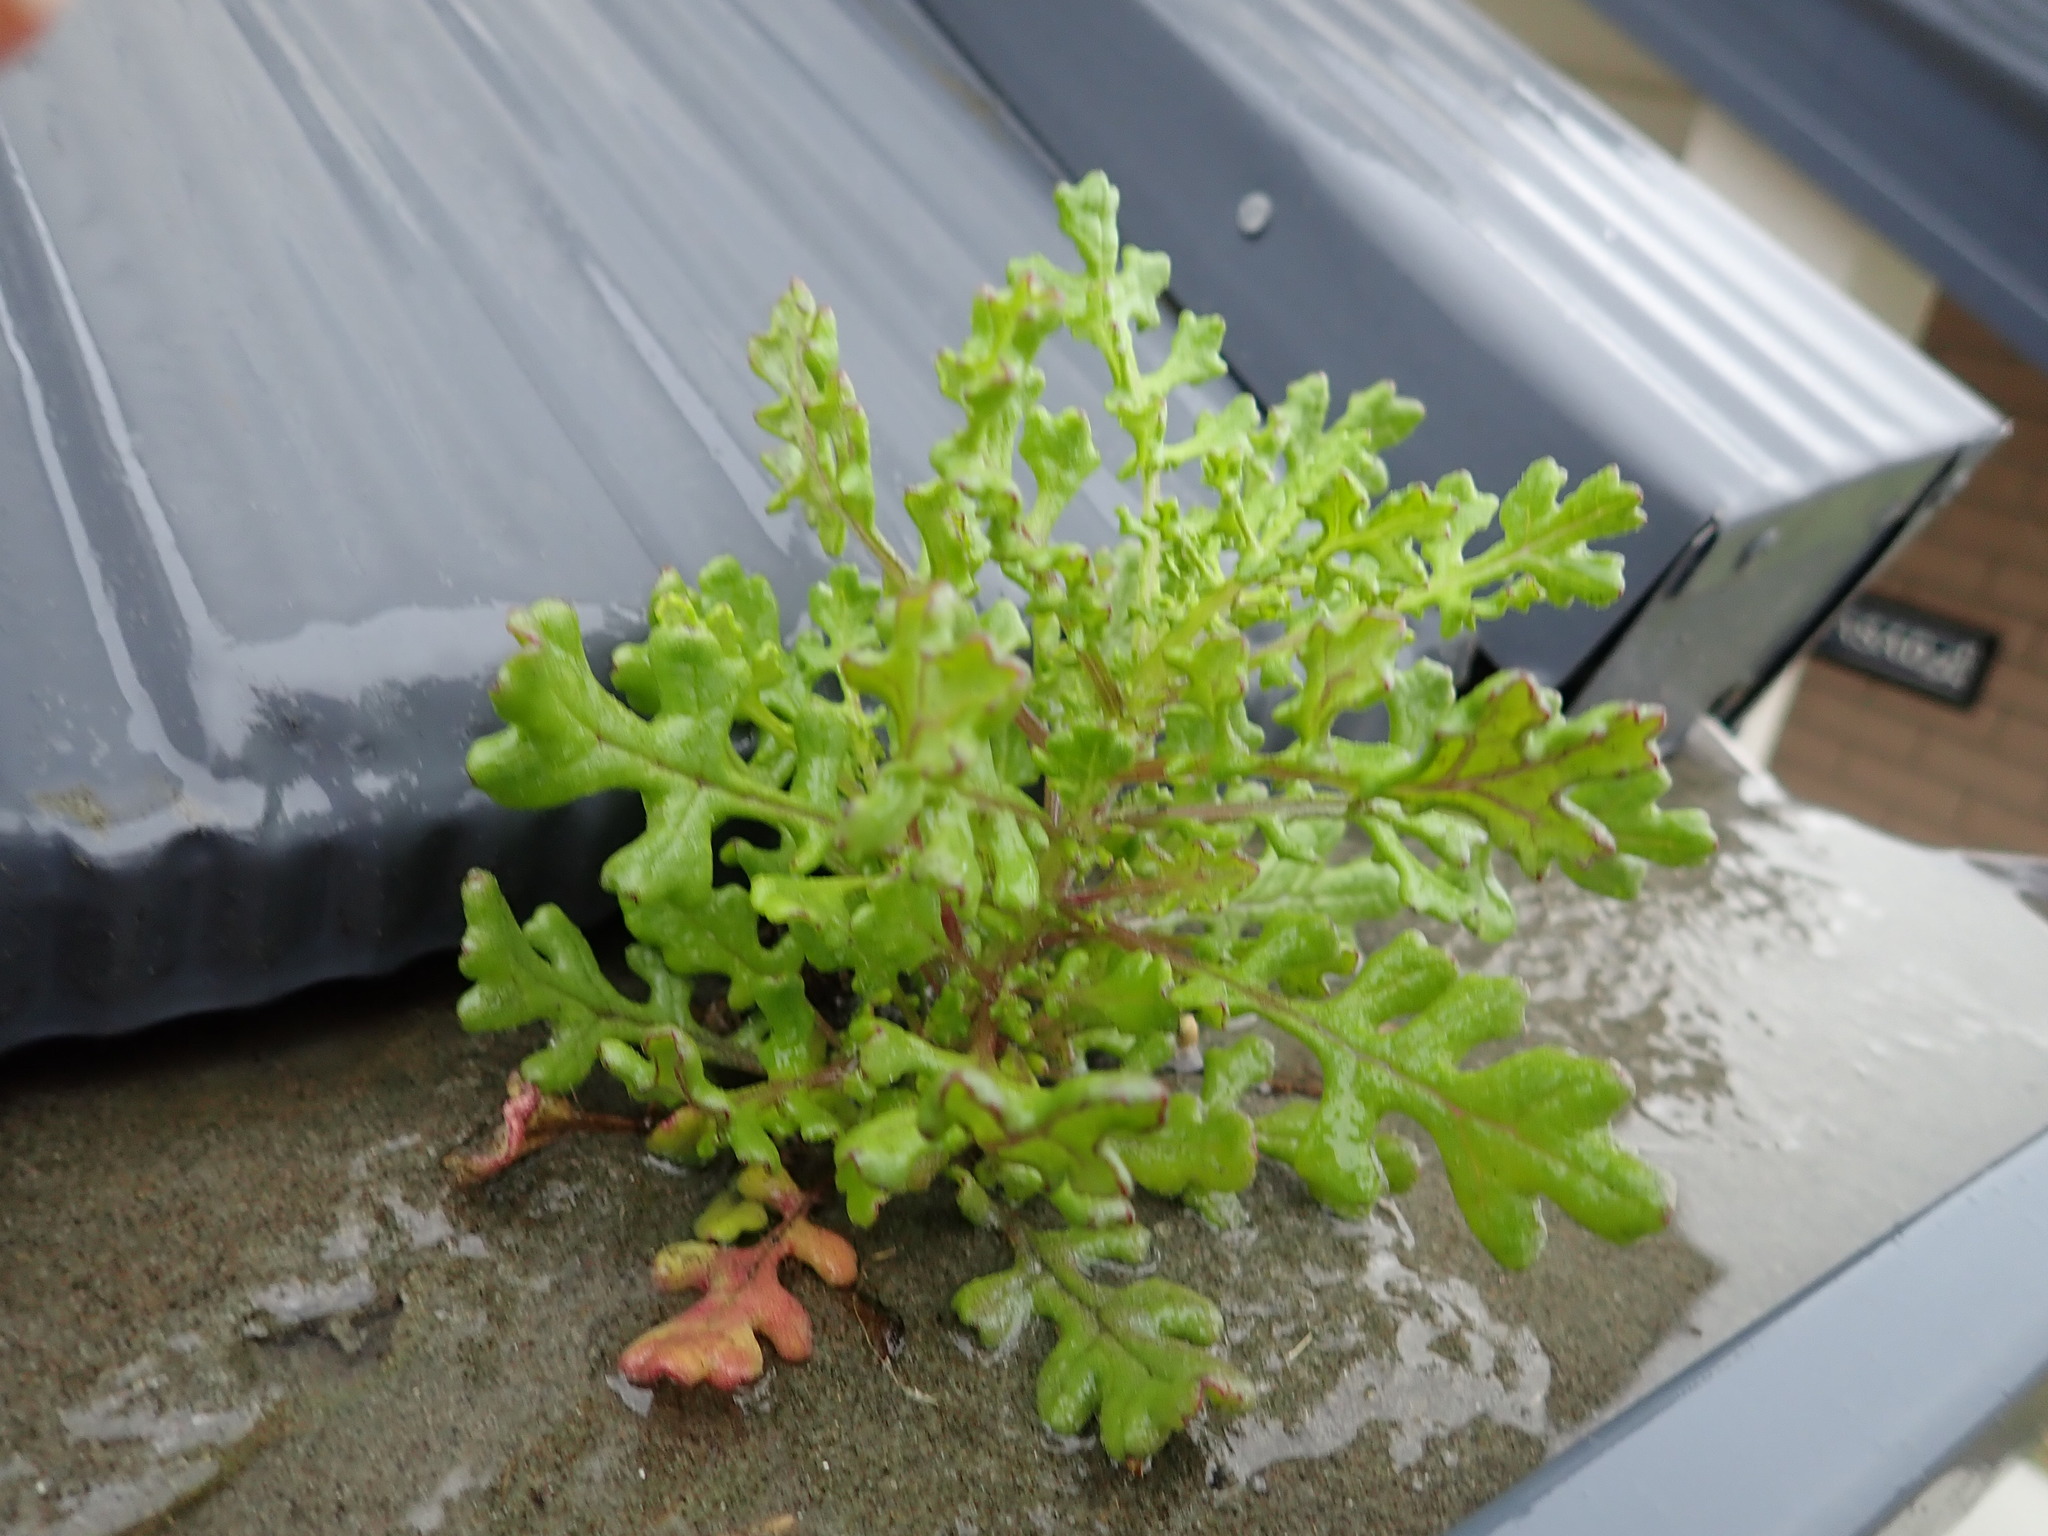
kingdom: Plantae
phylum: Tracheophyta
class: Magnoliopsida
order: Asterales
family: Asteraceae
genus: Senecio
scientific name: Senecio elegans
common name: Purple groundsel
